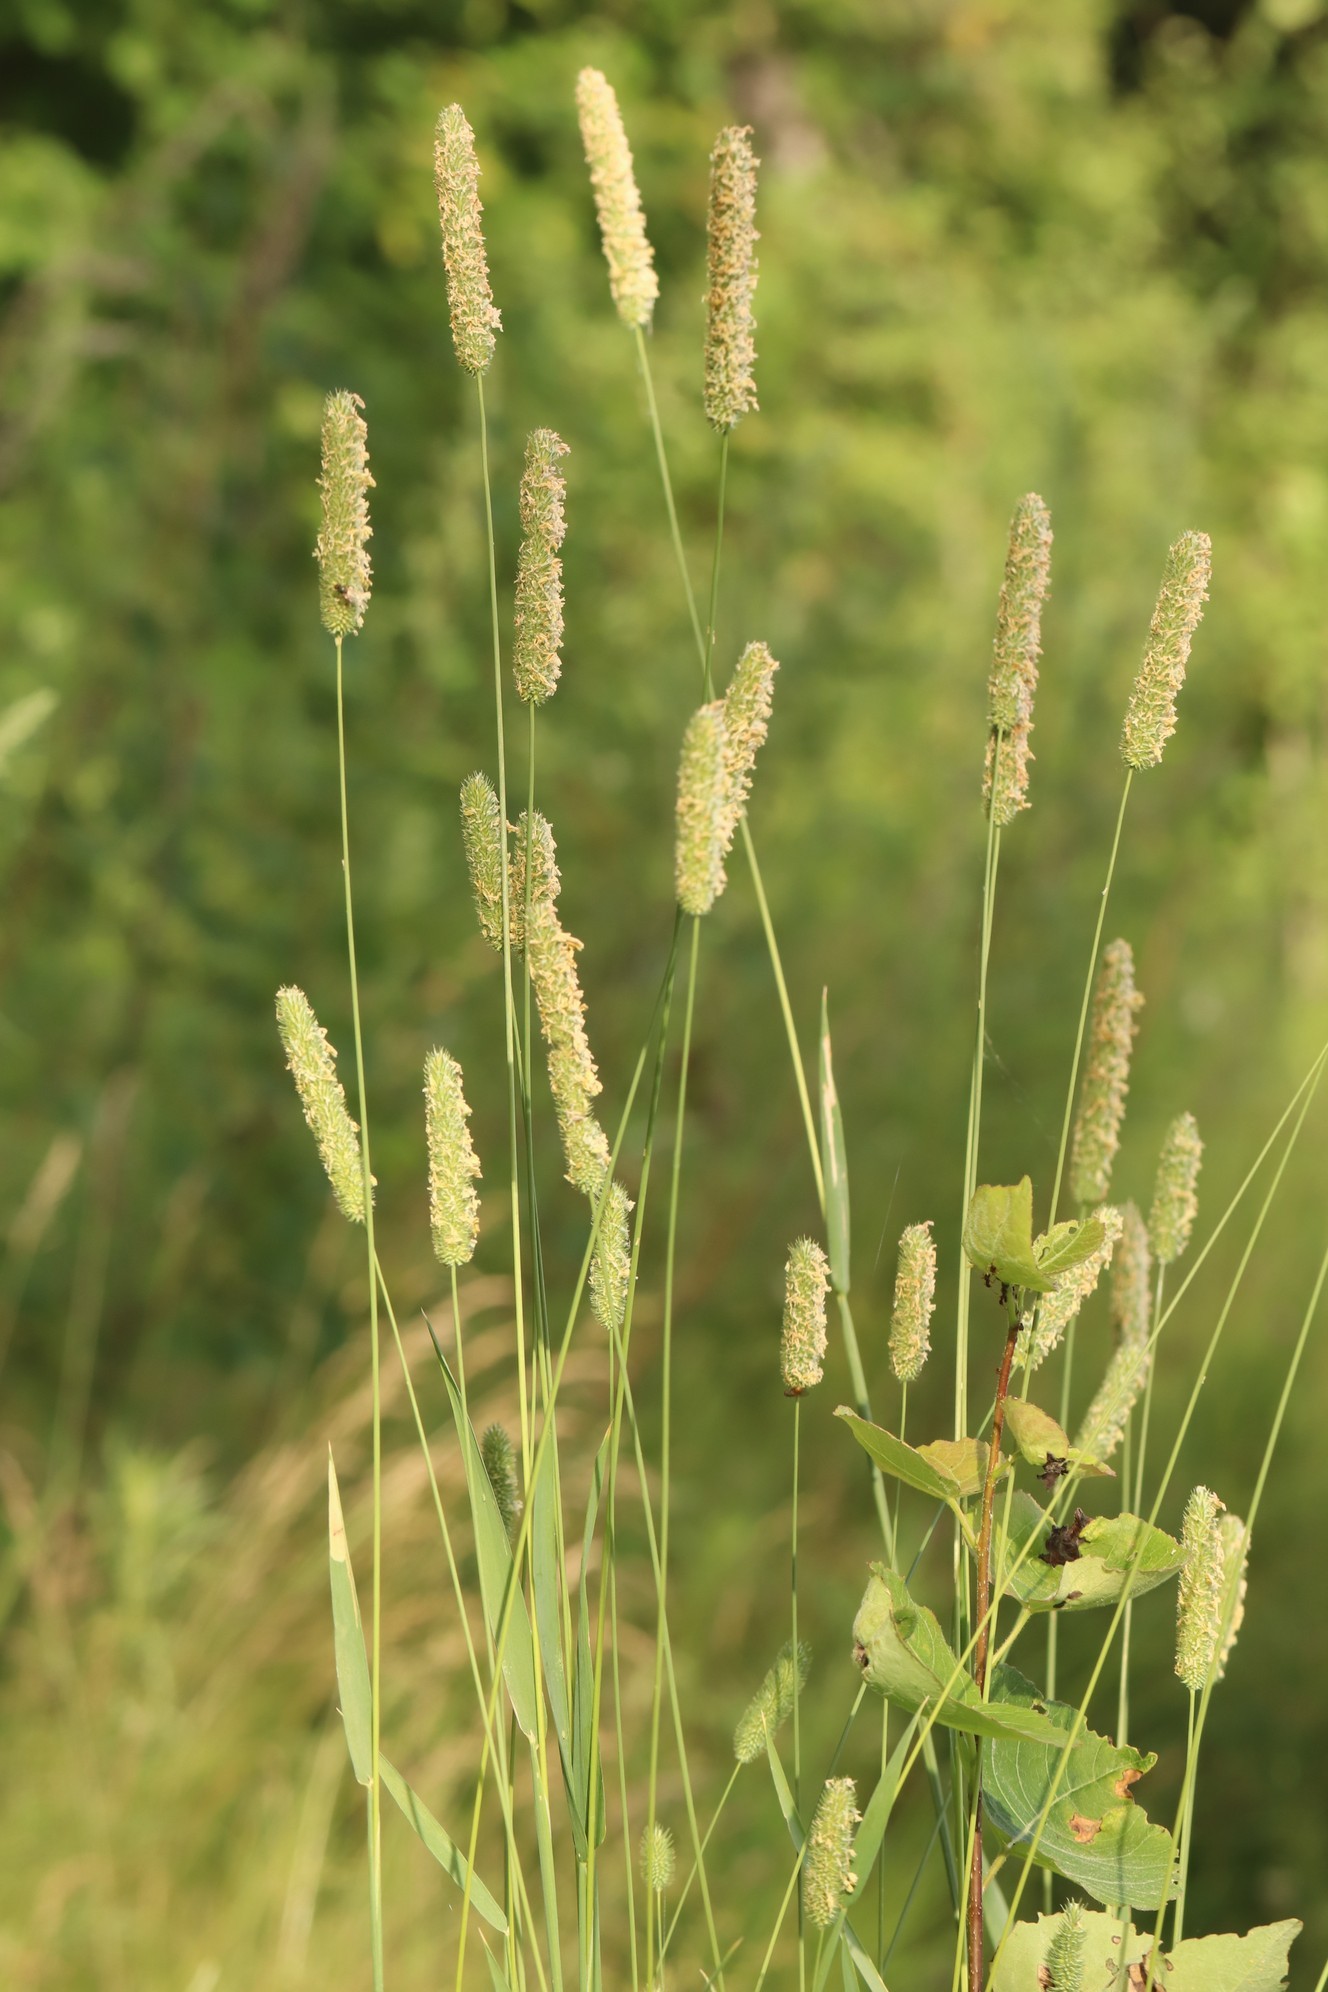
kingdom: Plantae
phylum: Tracheophyta
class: Liliopsida
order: Poales
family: Poaceae
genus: Phleum
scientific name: Phleum pratense
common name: Timothy grass
